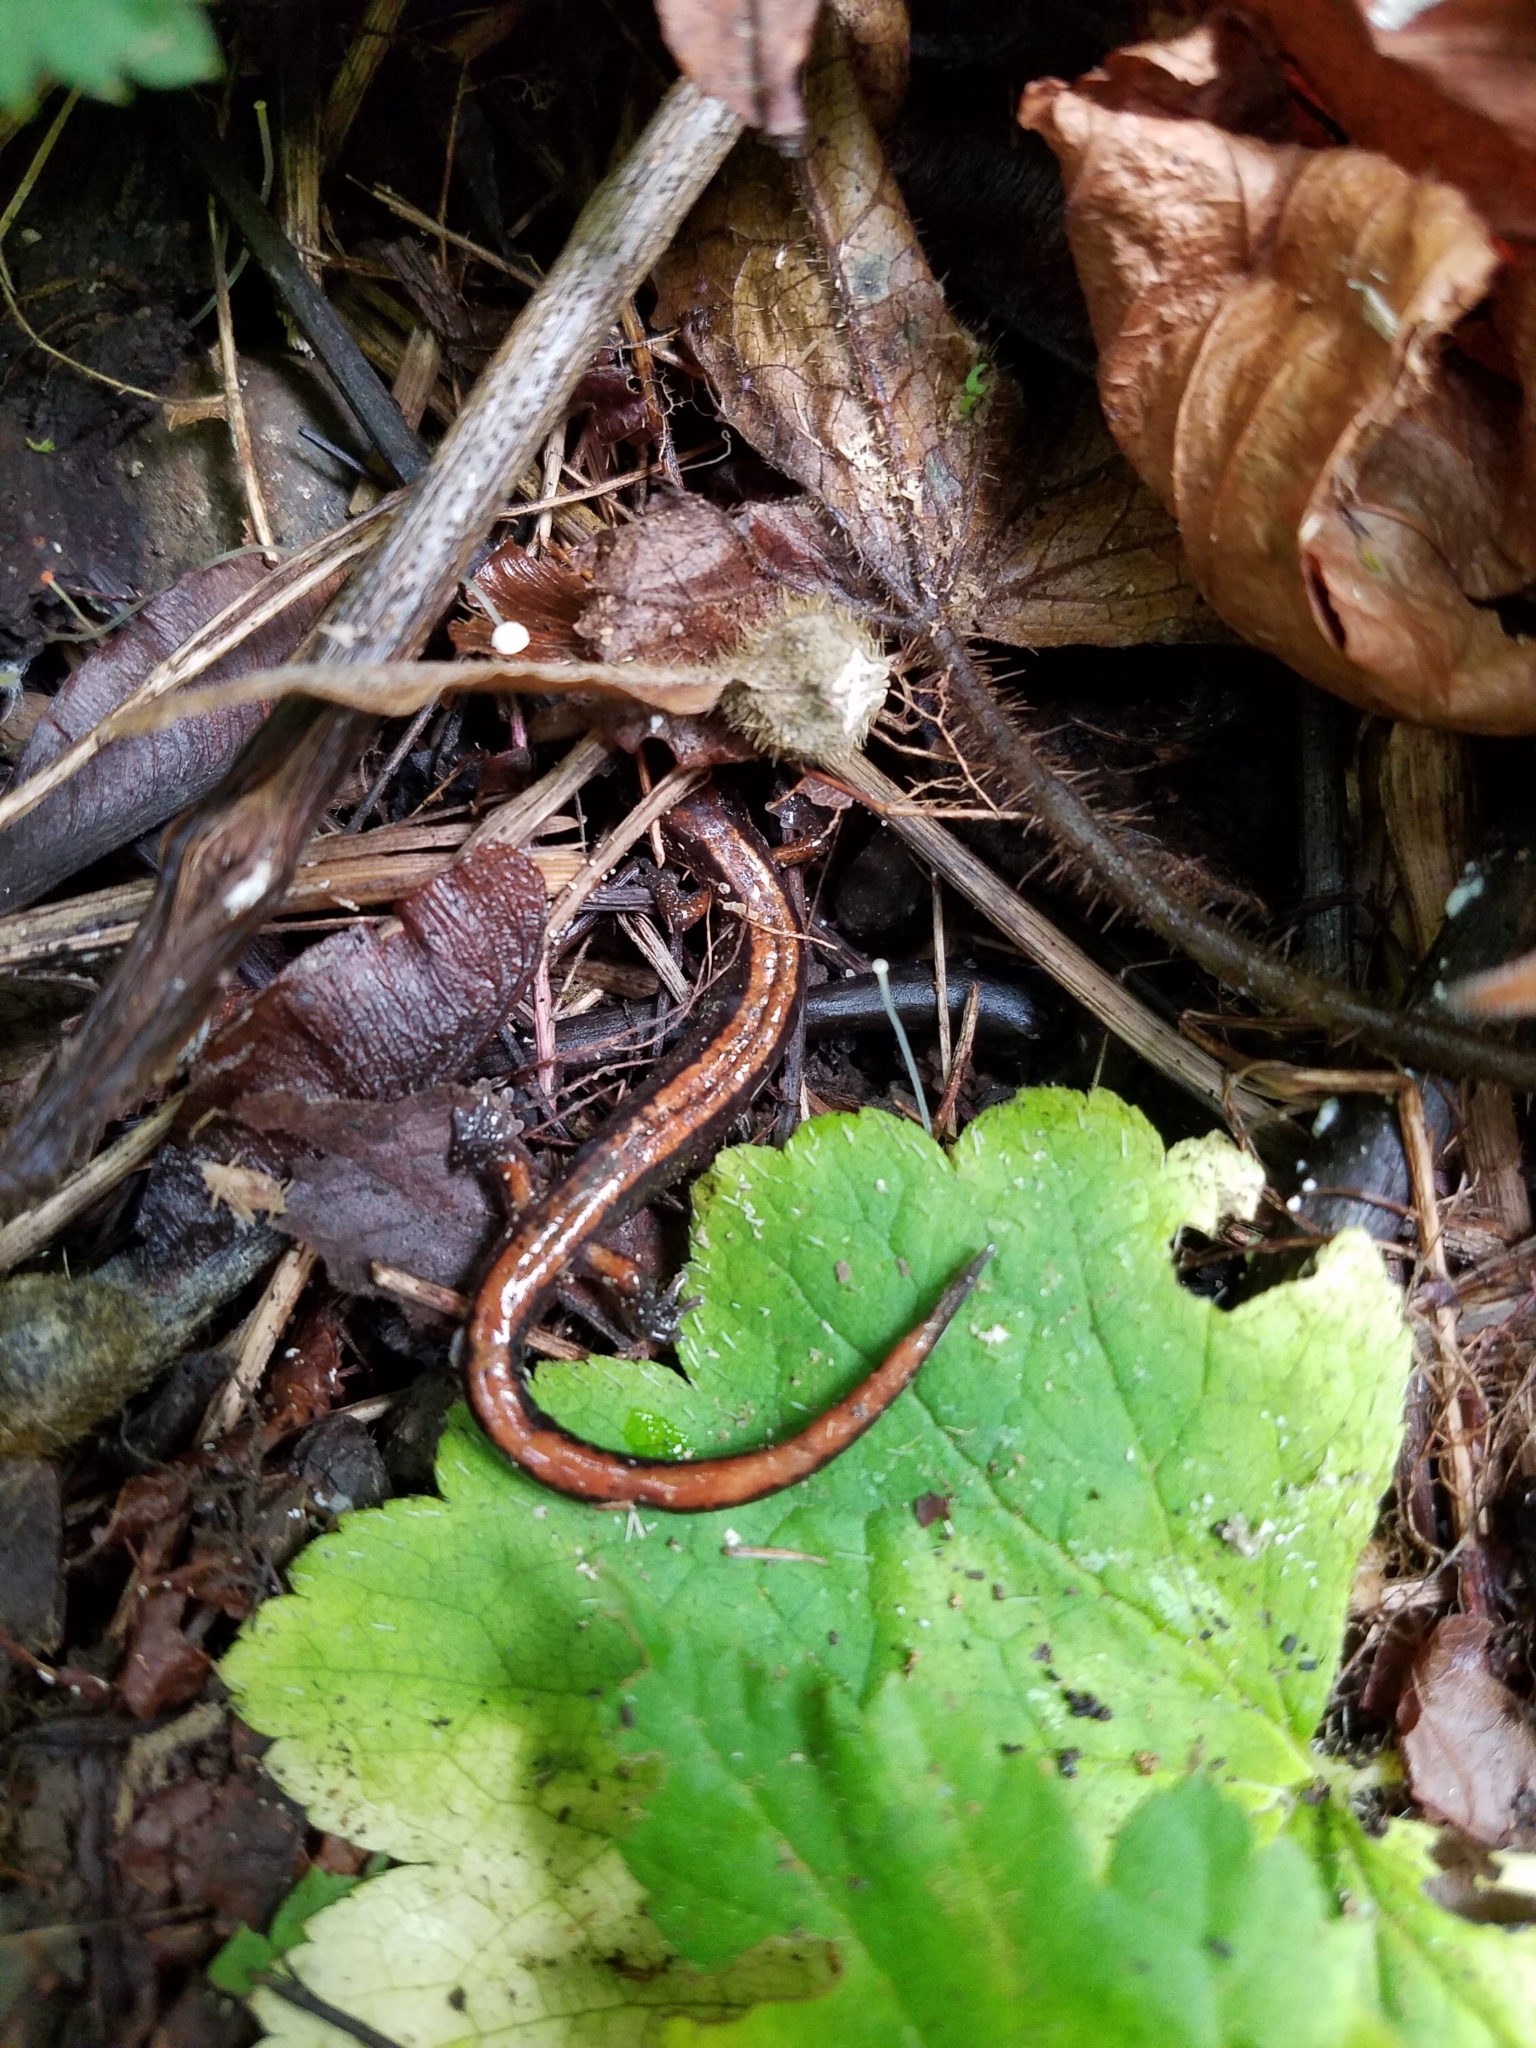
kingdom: Animalia
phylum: Chordata
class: Amphibia
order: Caudata
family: Plethodontidae
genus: Plethodon
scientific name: Plethodon vehiculum
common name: Western red-backed salamander
